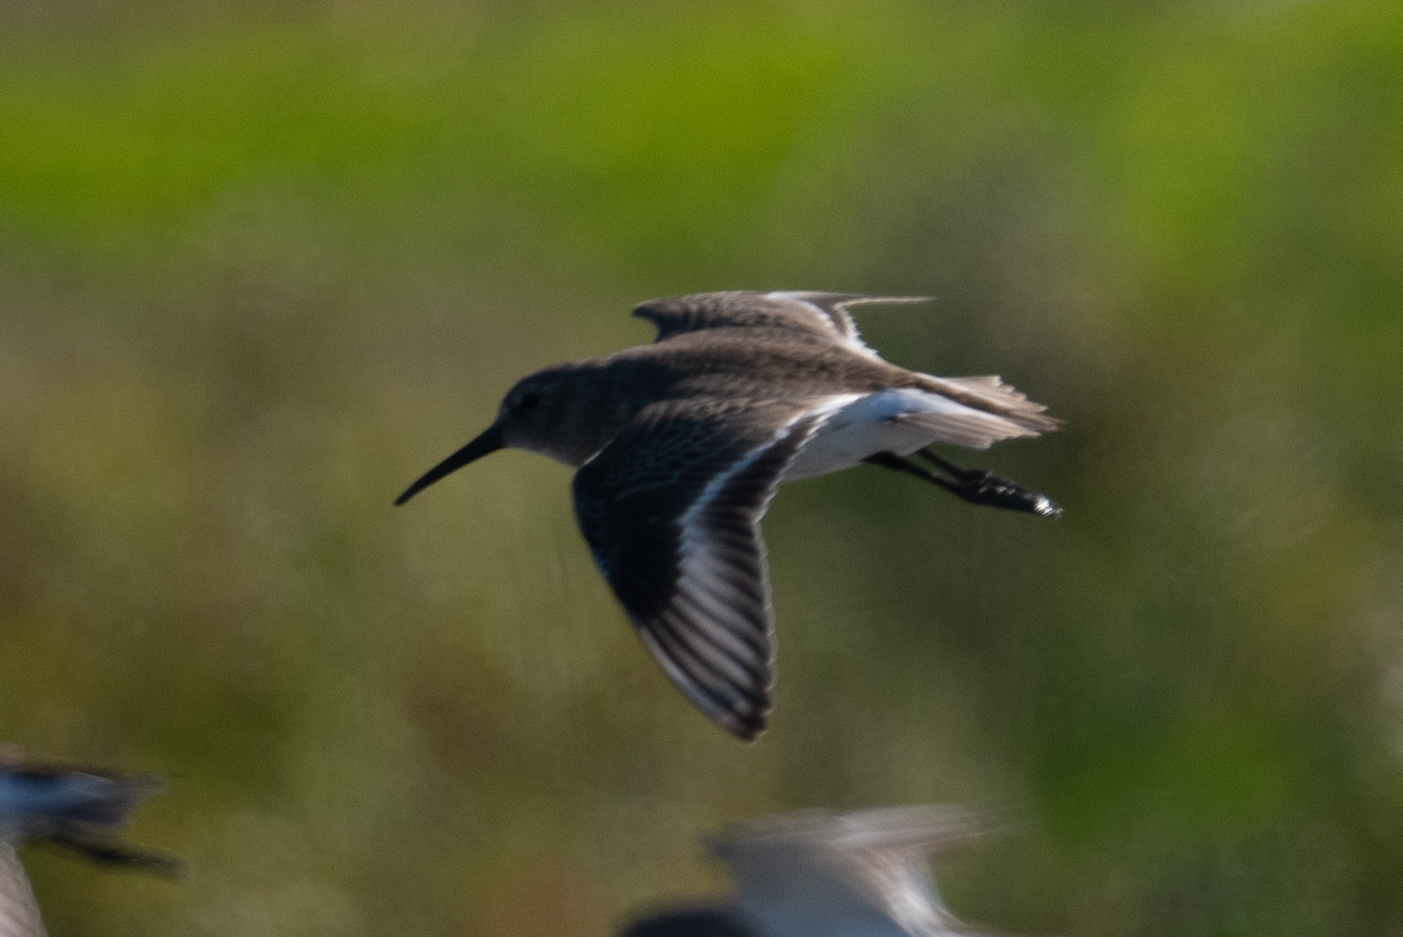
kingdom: Animalia
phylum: Chordata
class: Aves
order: Charadriiformes
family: Scolopacidae
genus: Calidris
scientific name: Calidris alpina
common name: Dunlin
